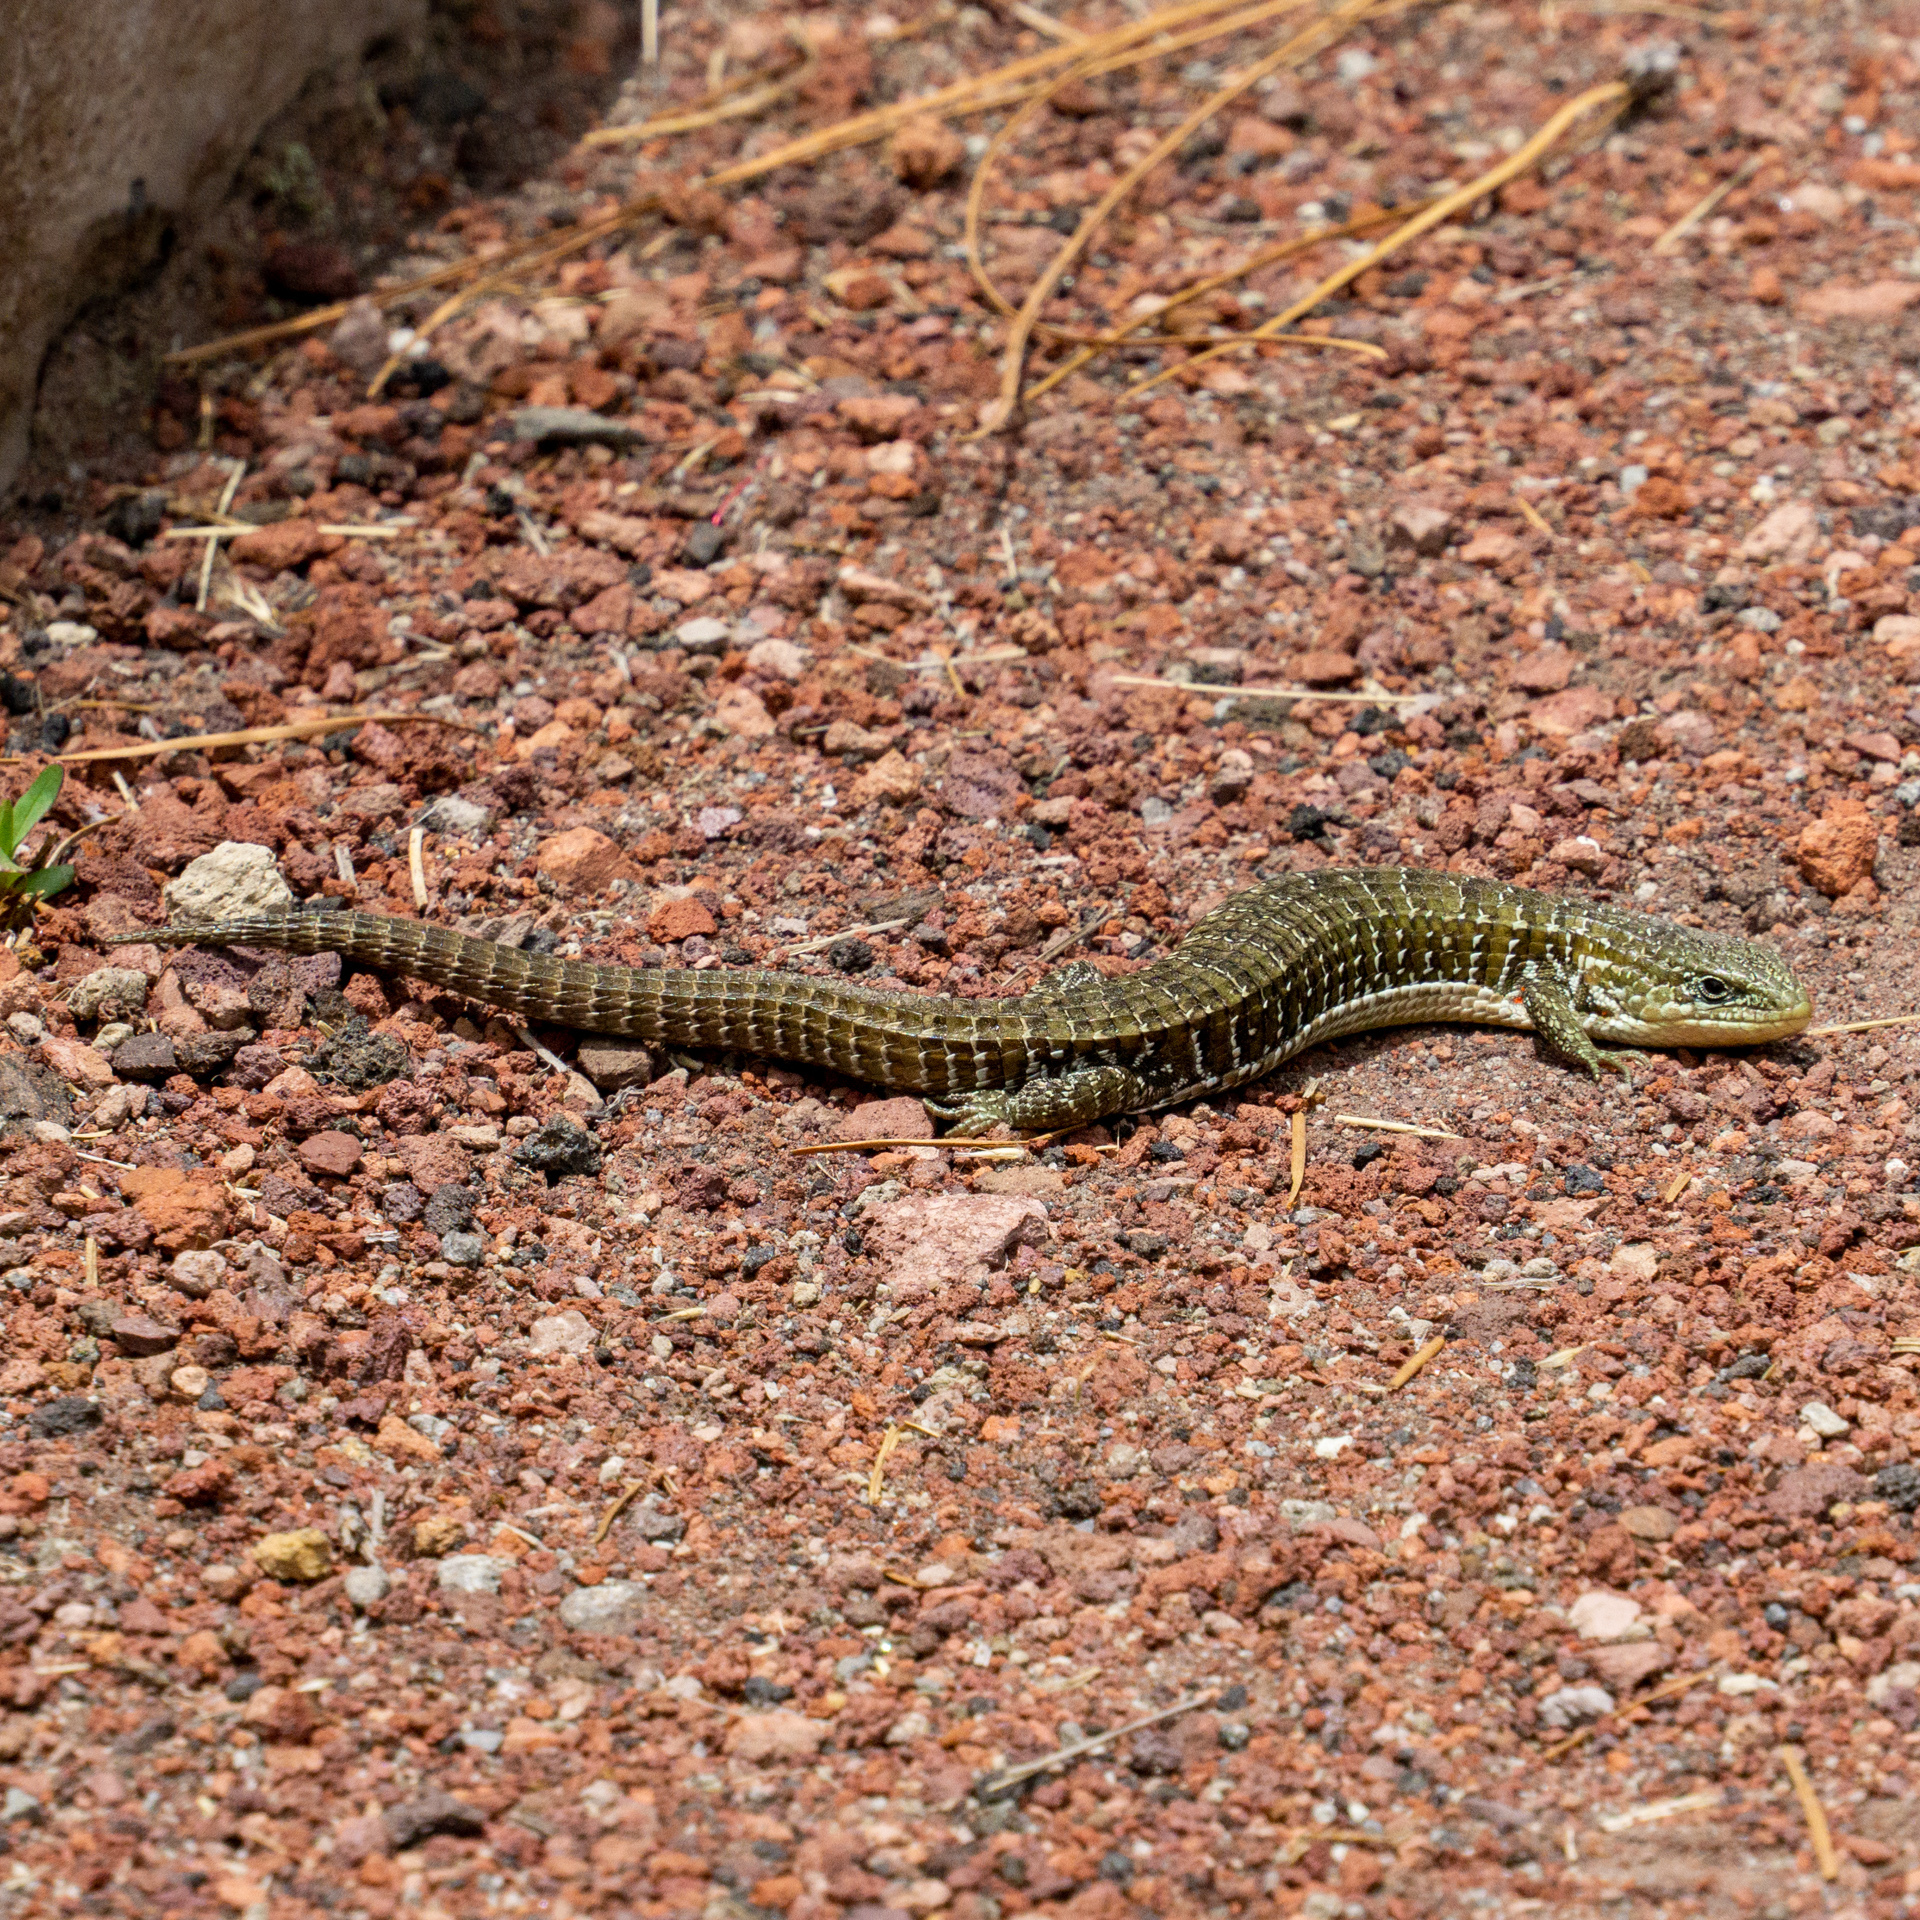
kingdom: Animalia
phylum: Chordata
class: Squamata
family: Anguidae
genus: Barisia
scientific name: Barisia imbricata
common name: Imbricate alligator lizard
